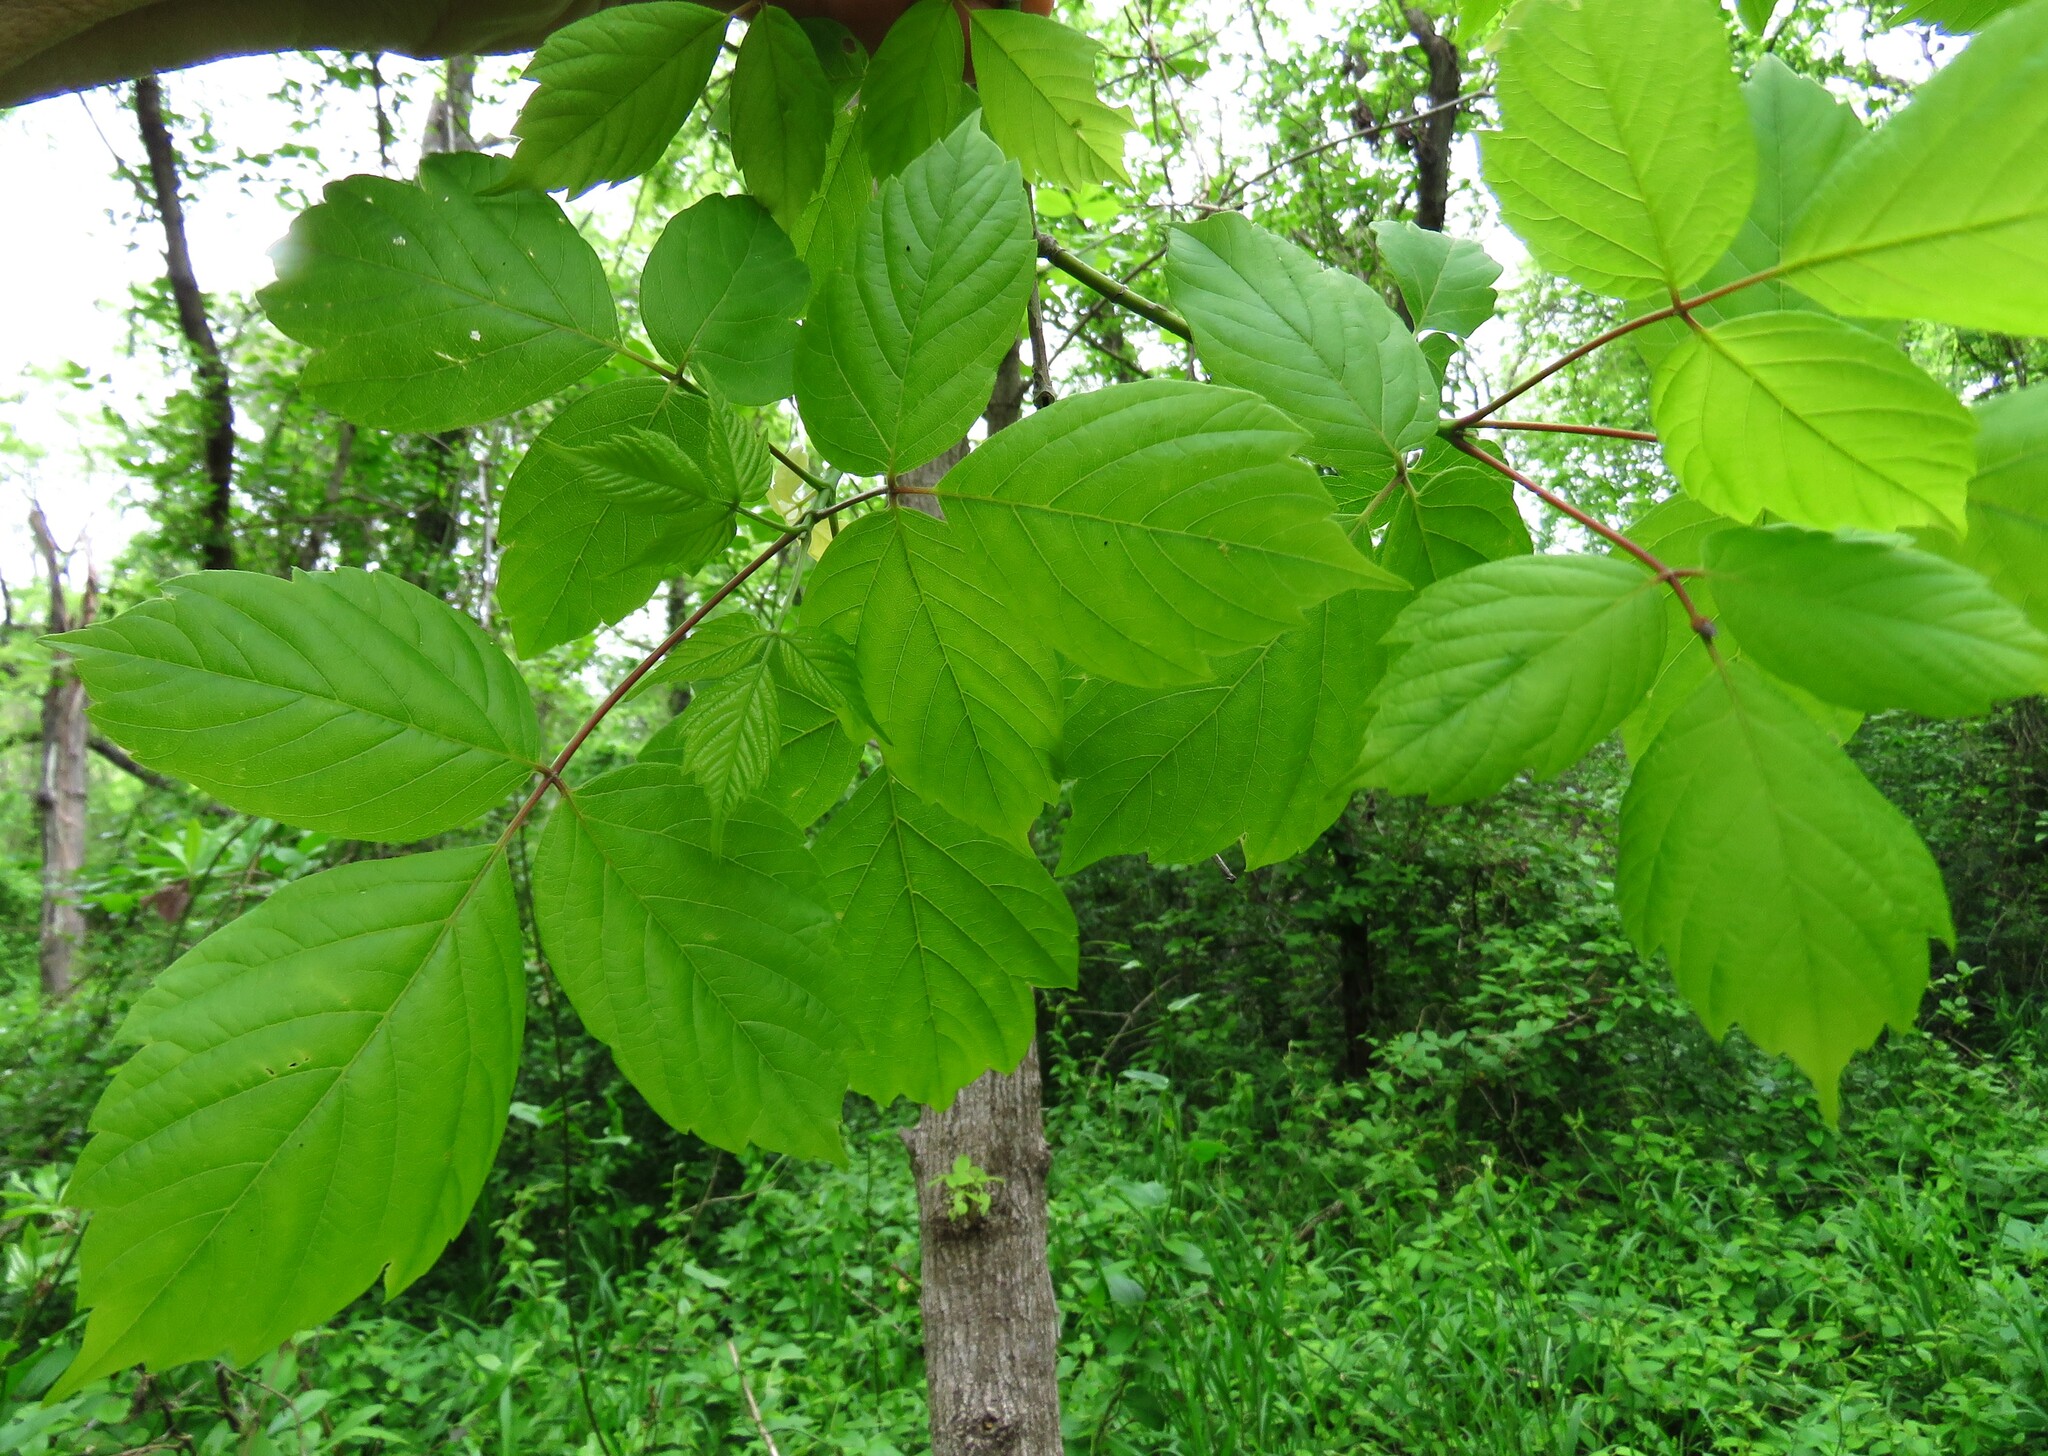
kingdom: Plantae
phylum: Tracheophyta
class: Magnoliopsida
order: Sapindales
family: Sapindaceae
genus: Acer
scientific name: Acer negundo
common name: Ashleaf maple
